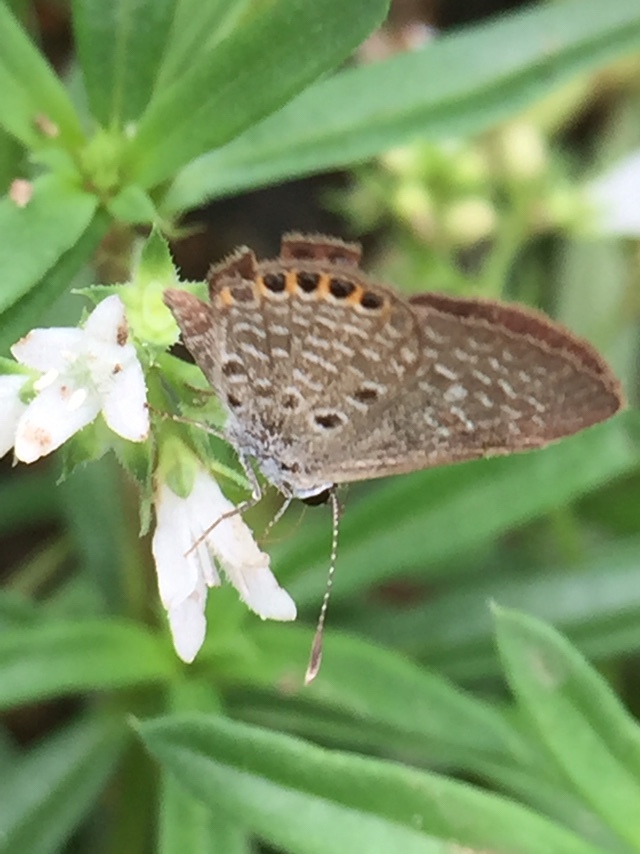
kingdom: Animalia
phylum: Arthropoda
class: Insecta
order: Lepidoptera
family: Lycaenidae
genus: Freyeria
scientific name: Freyeria putli
